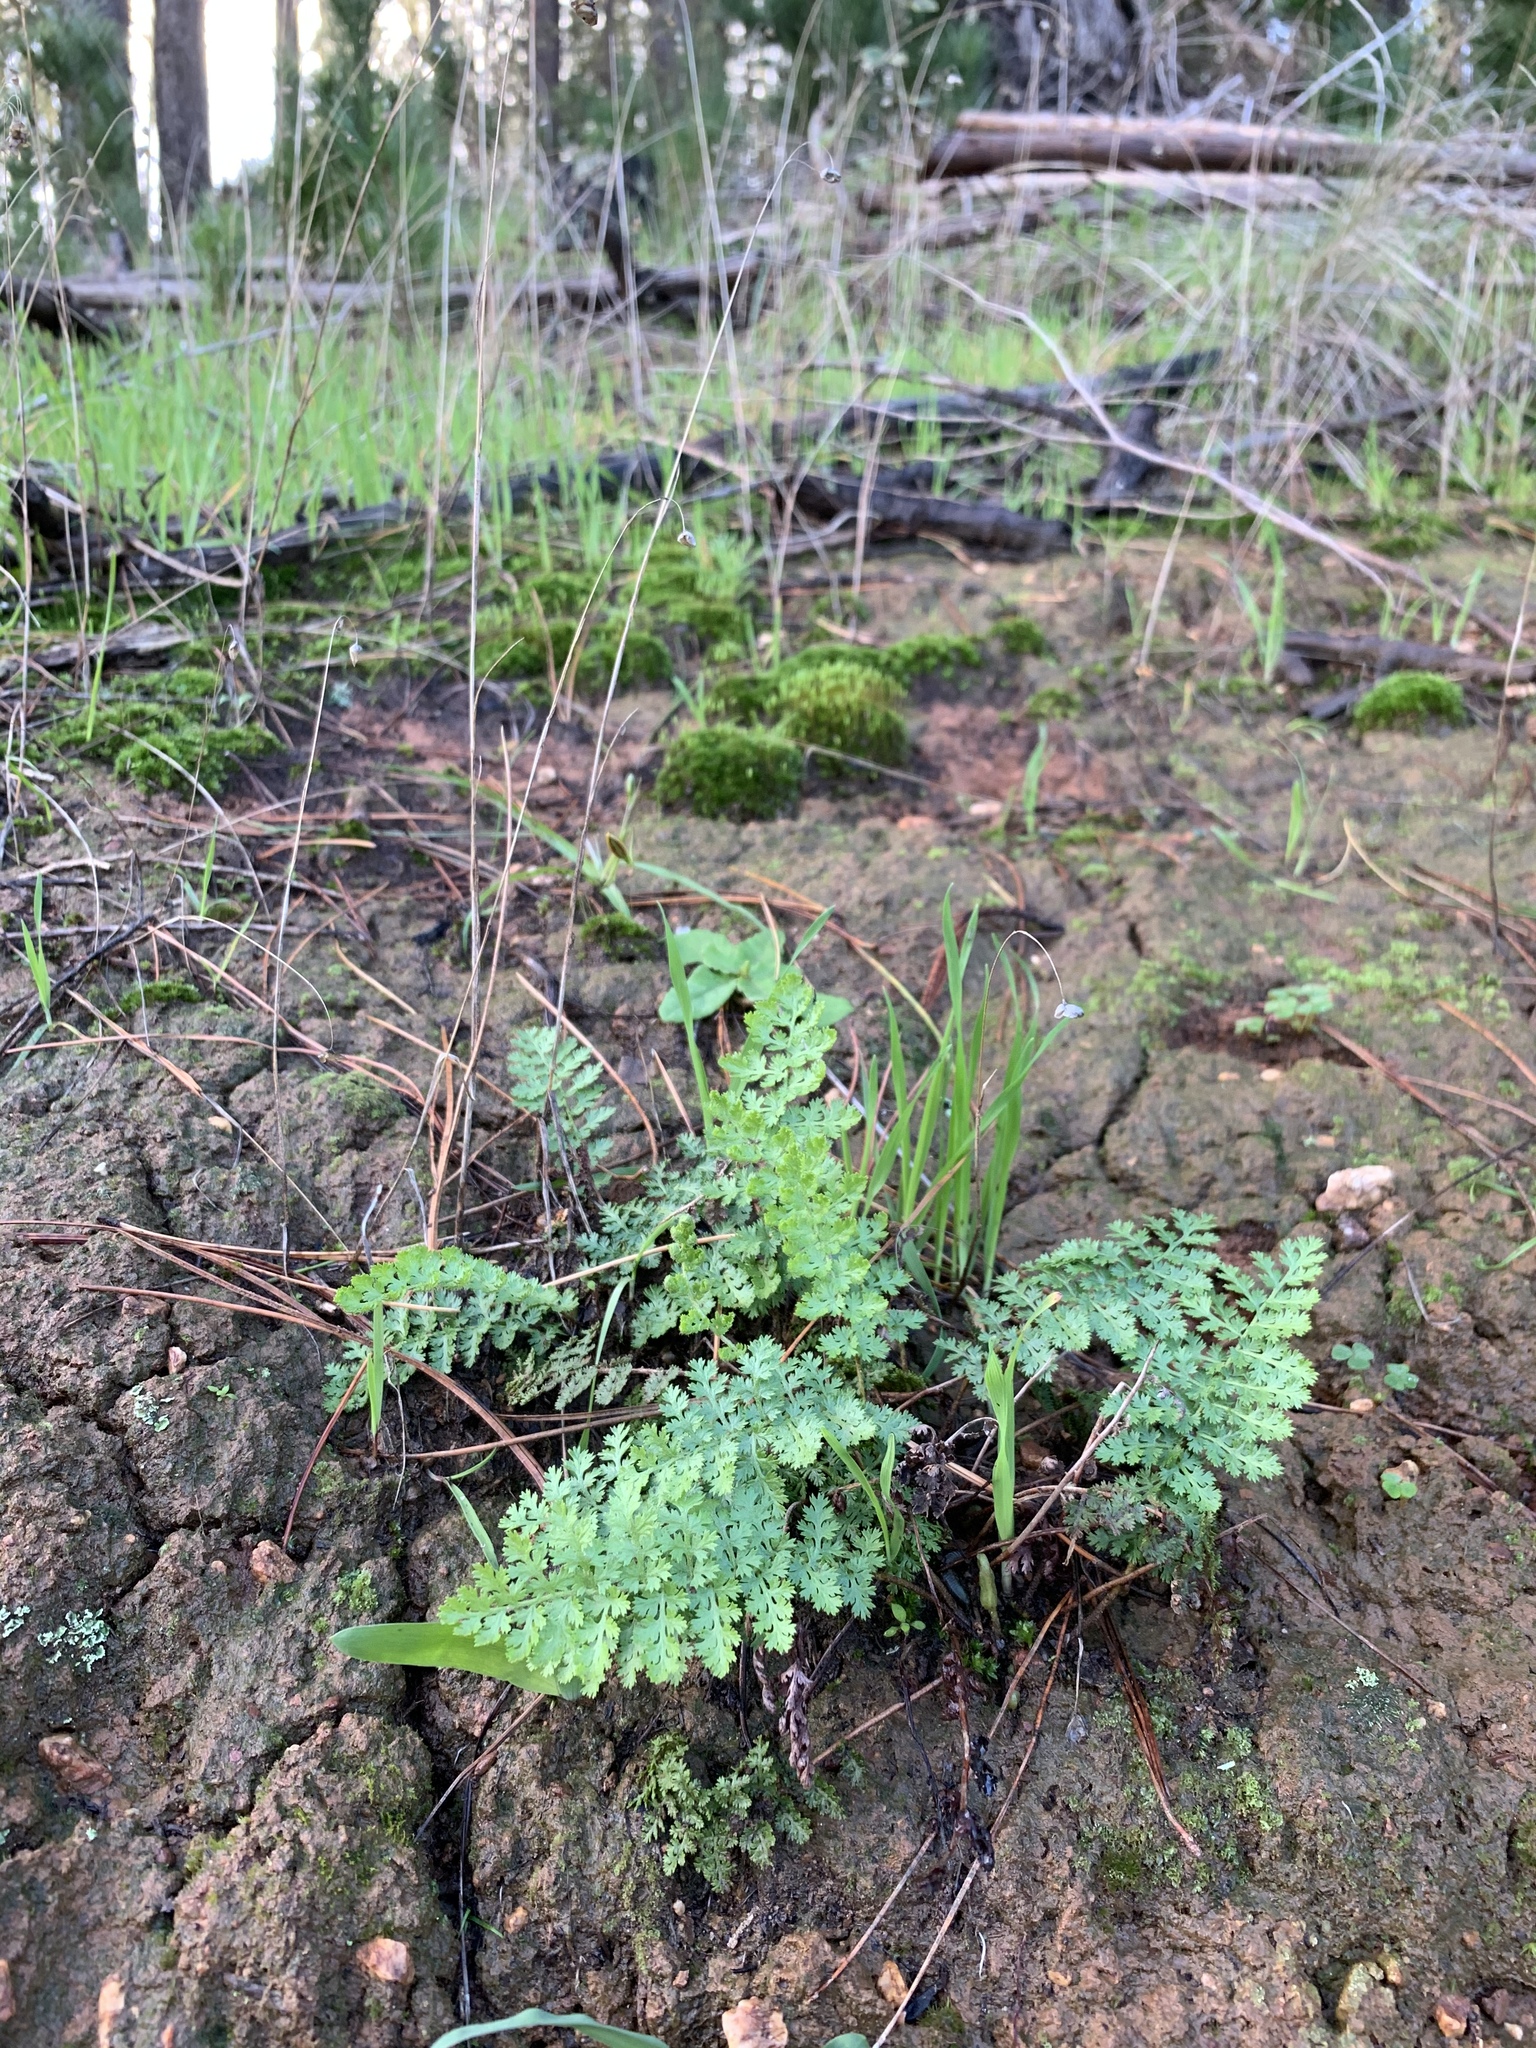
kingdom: Plantae
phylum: Tracheophyta
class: Polypodiopsida
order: Schizaeales
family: Anemiaceae
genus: Anemia
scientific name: Anemia caffrorum
